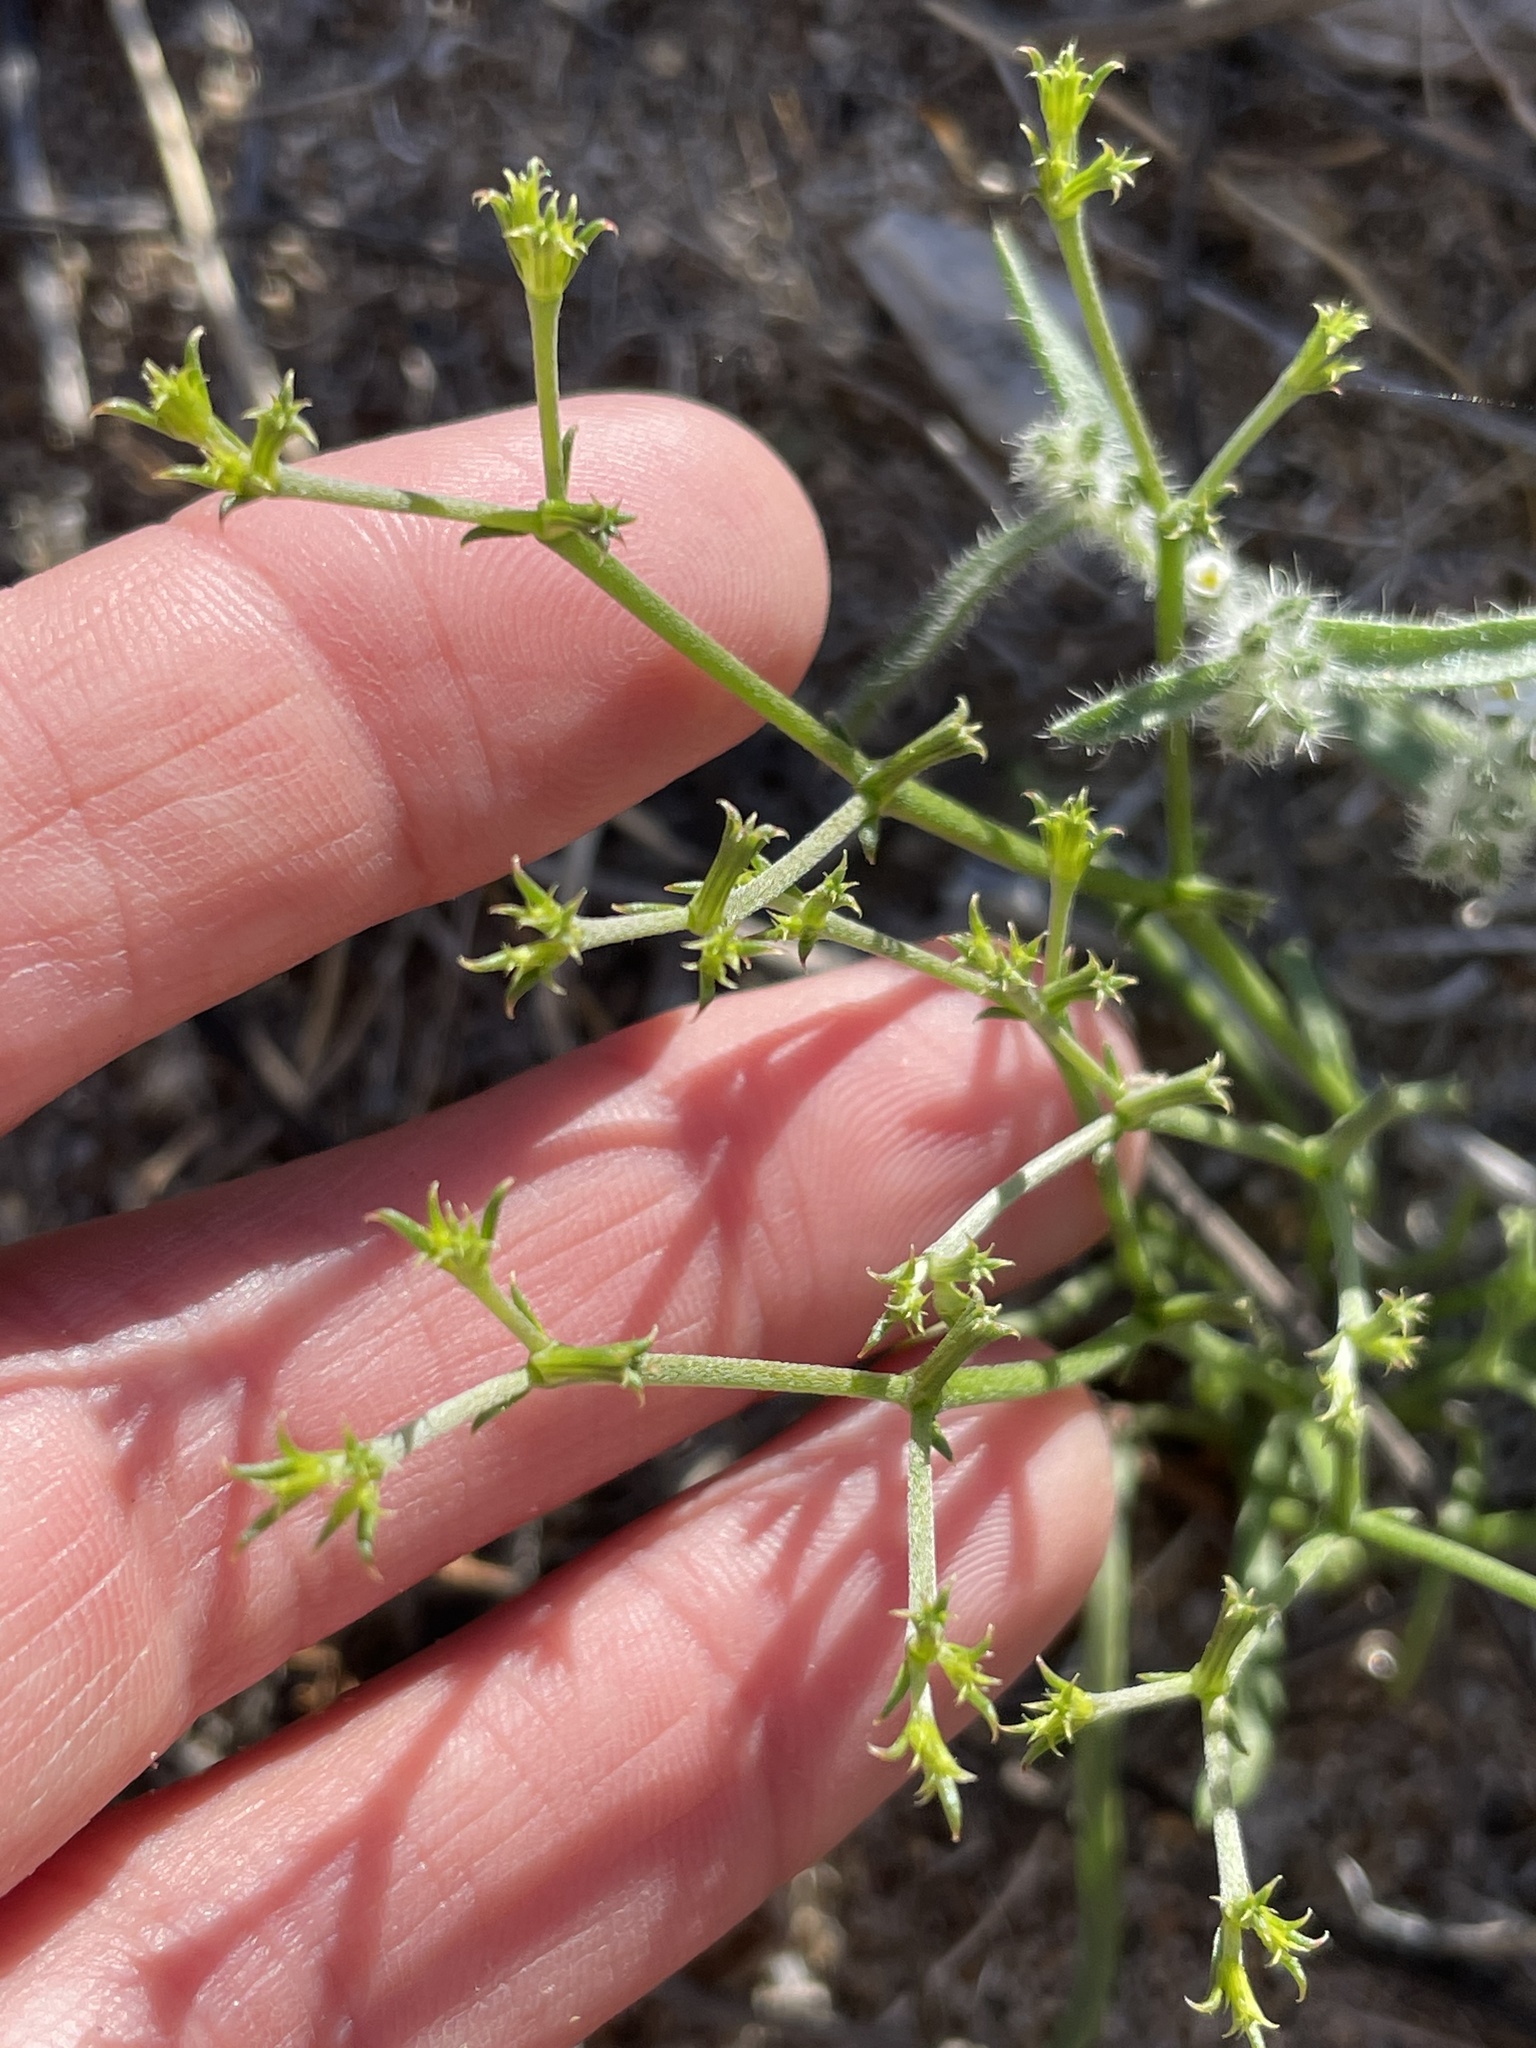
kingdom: Plantae
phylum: Tracheophyta
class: Magnoliopsida
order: Caryophyllales
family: Polygonaceae
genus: Chorizanthe
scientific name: Chorizanthe brevicornu
